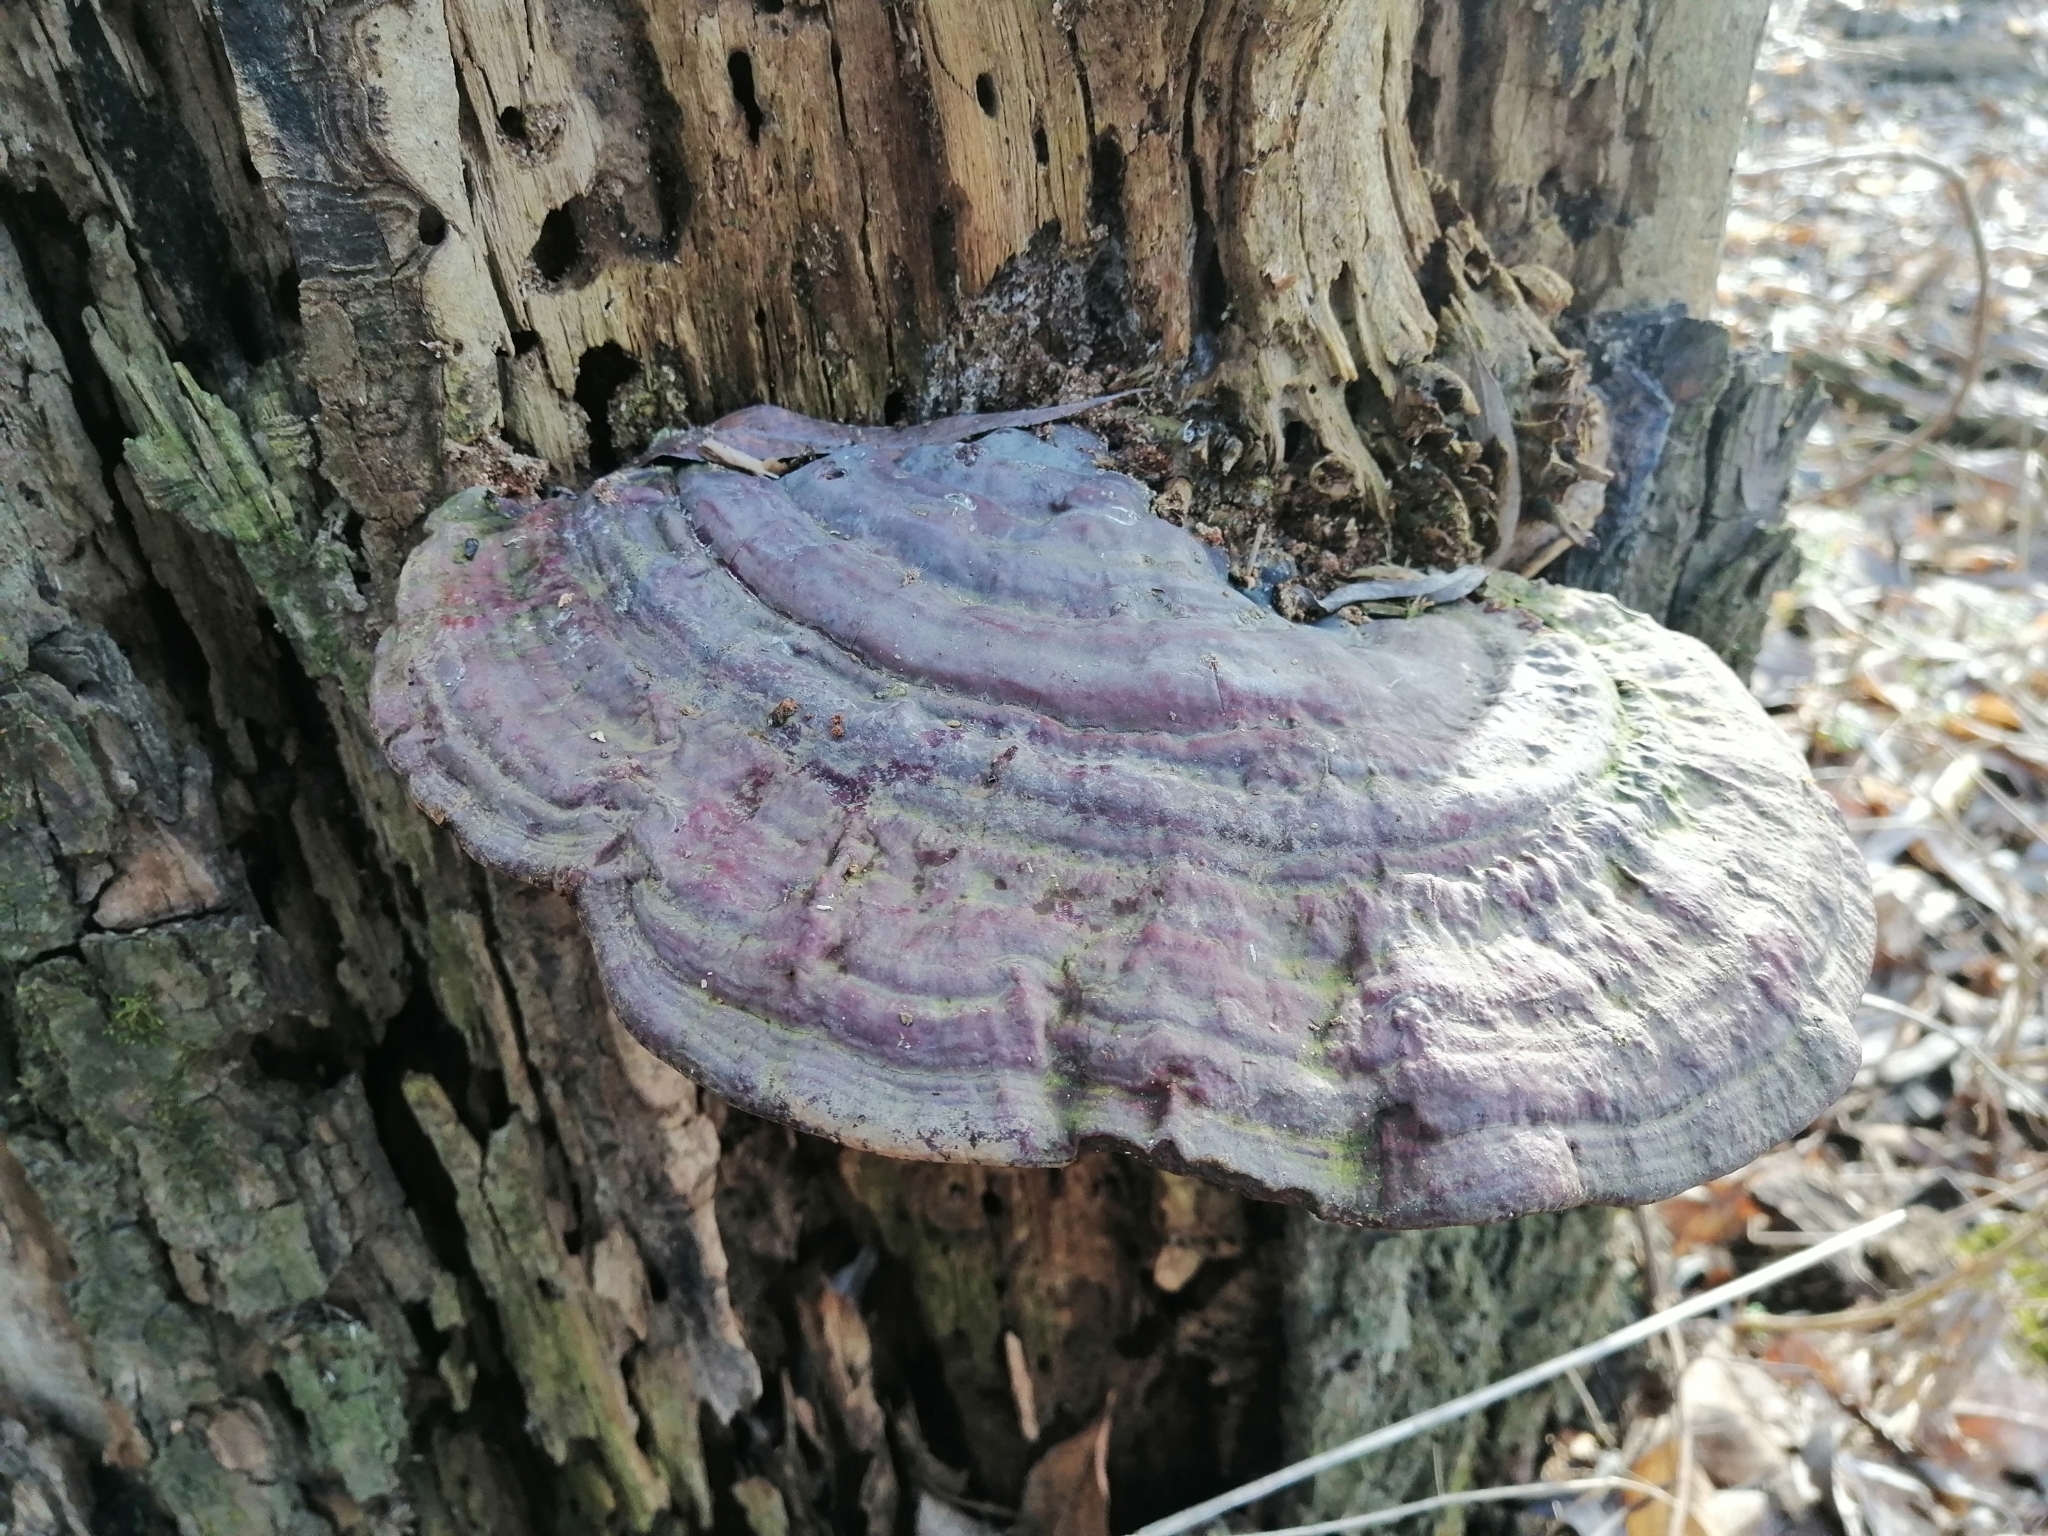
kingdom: Fungi
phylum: Basidiomycota
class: Agaricomycetes
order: Polyporales
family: Polyporaceae
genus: Ganoderma
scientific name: Ganoderma resinaceum
